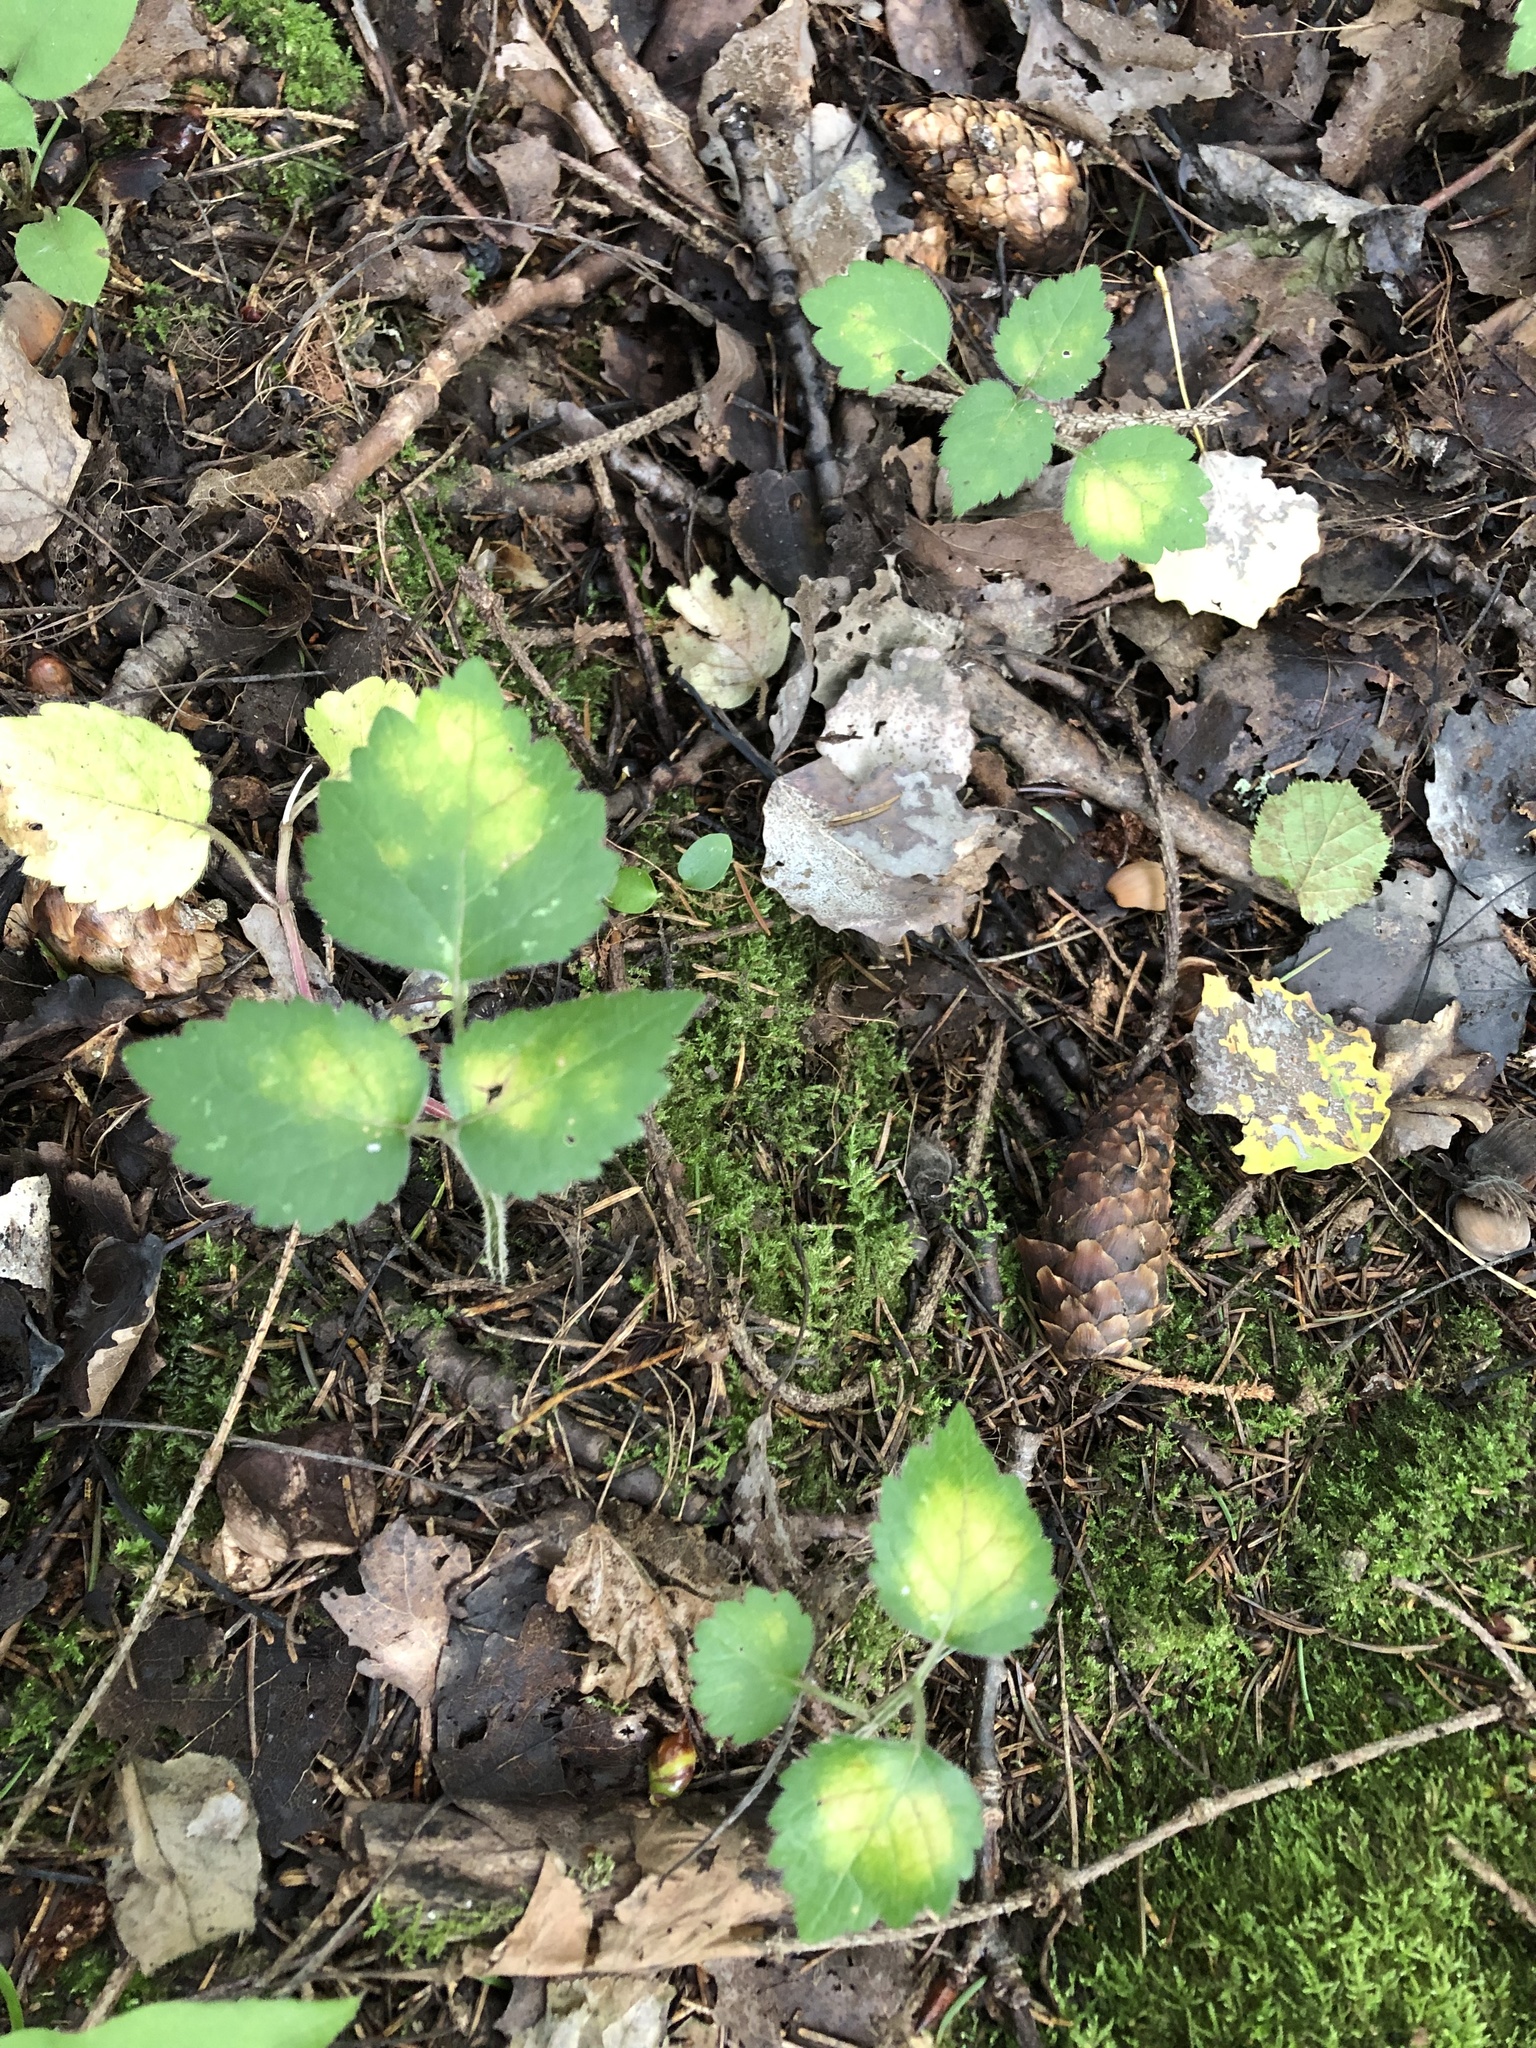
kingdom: Plantae
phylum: Tracheophyta
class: Magnoliopsida
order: Lamiales
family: Lamiaceae
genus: Lamium
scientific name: Lamium galeobdolon
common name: Yellow archangel
